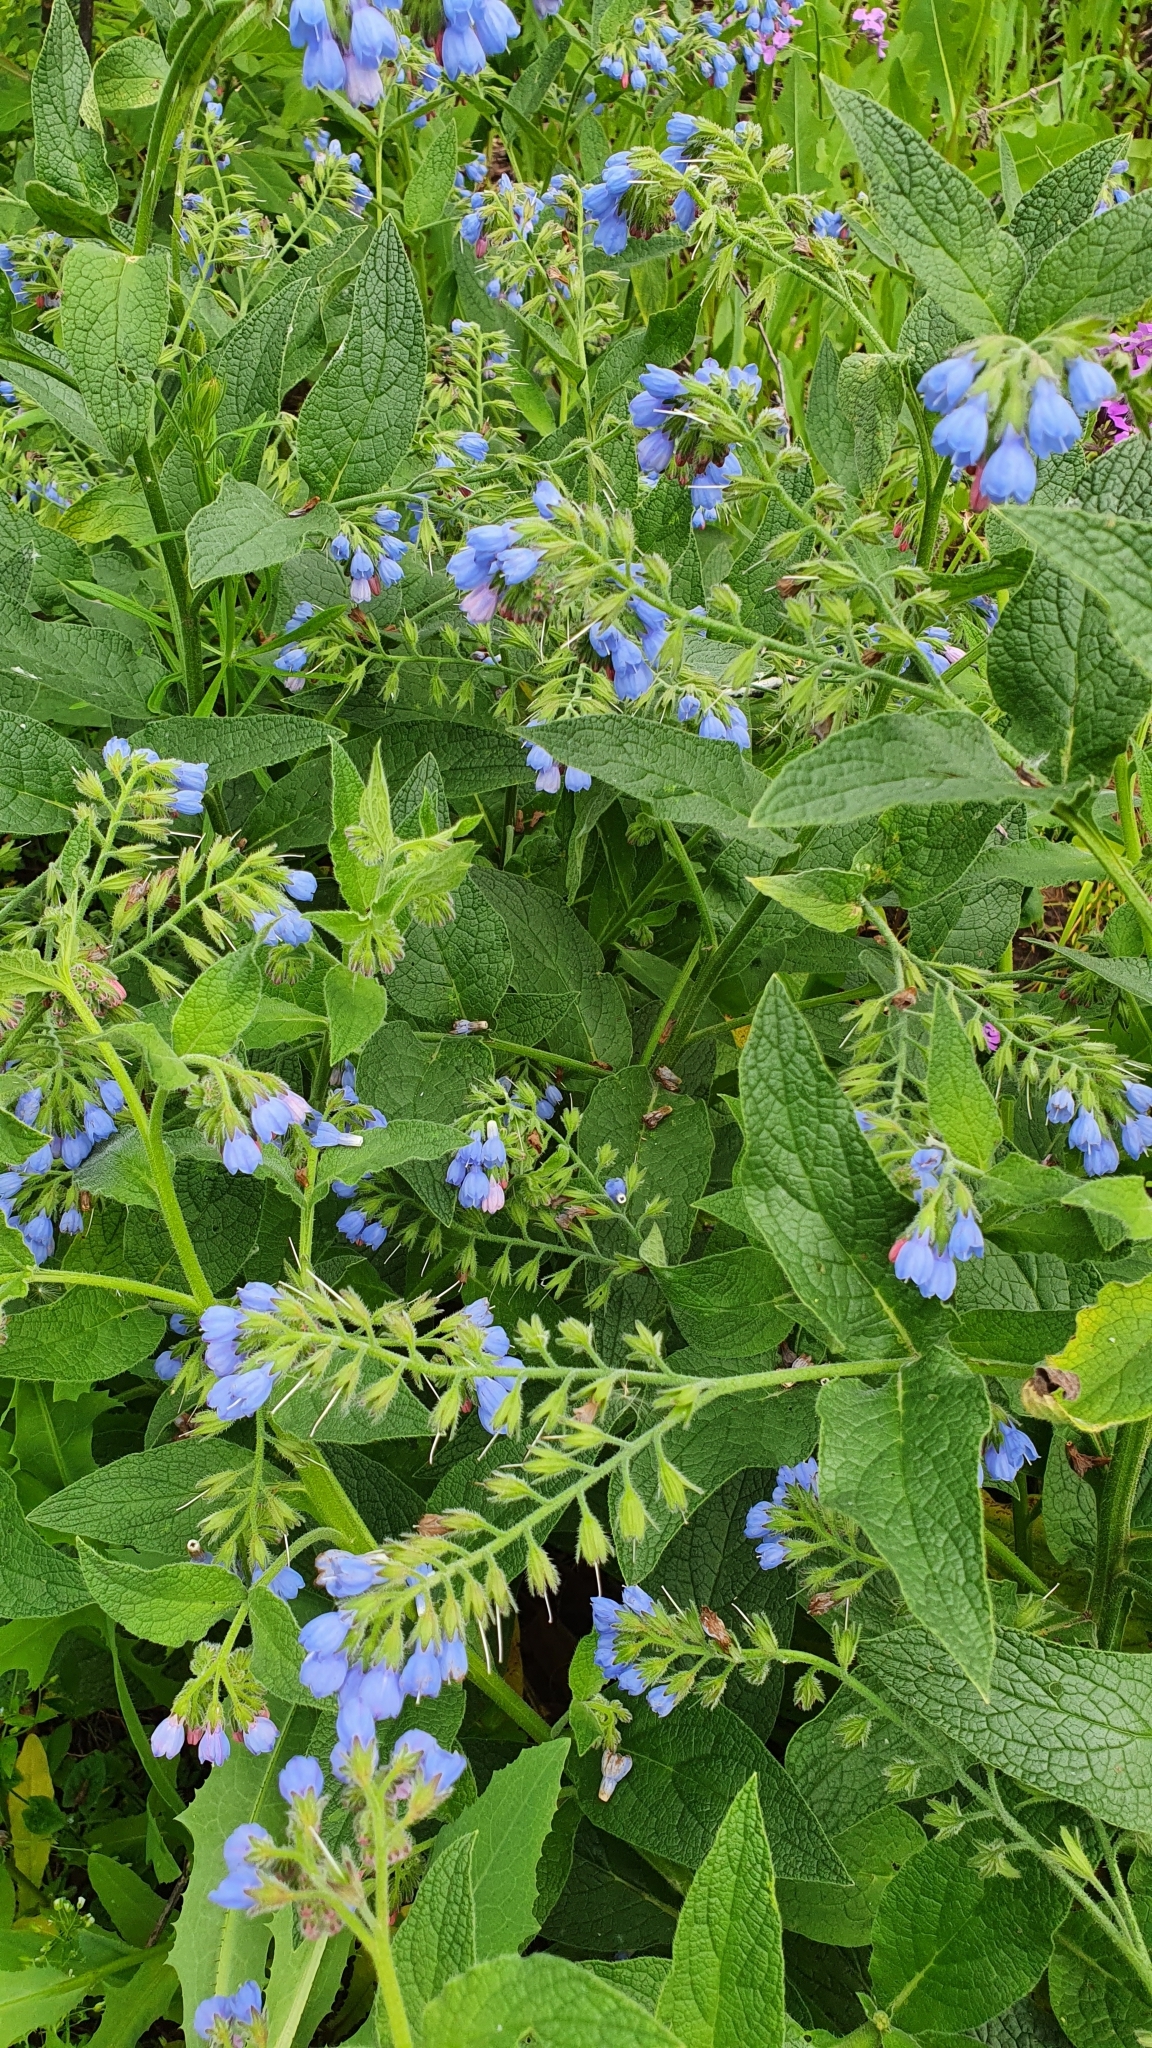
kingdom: Plantae
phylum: Tracheophyta
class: Magnoliopsida
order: Boraginales
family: Boraginaceae
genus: Symphytum
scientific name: Symphytum caucasicum
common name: Caucasian comfrey
